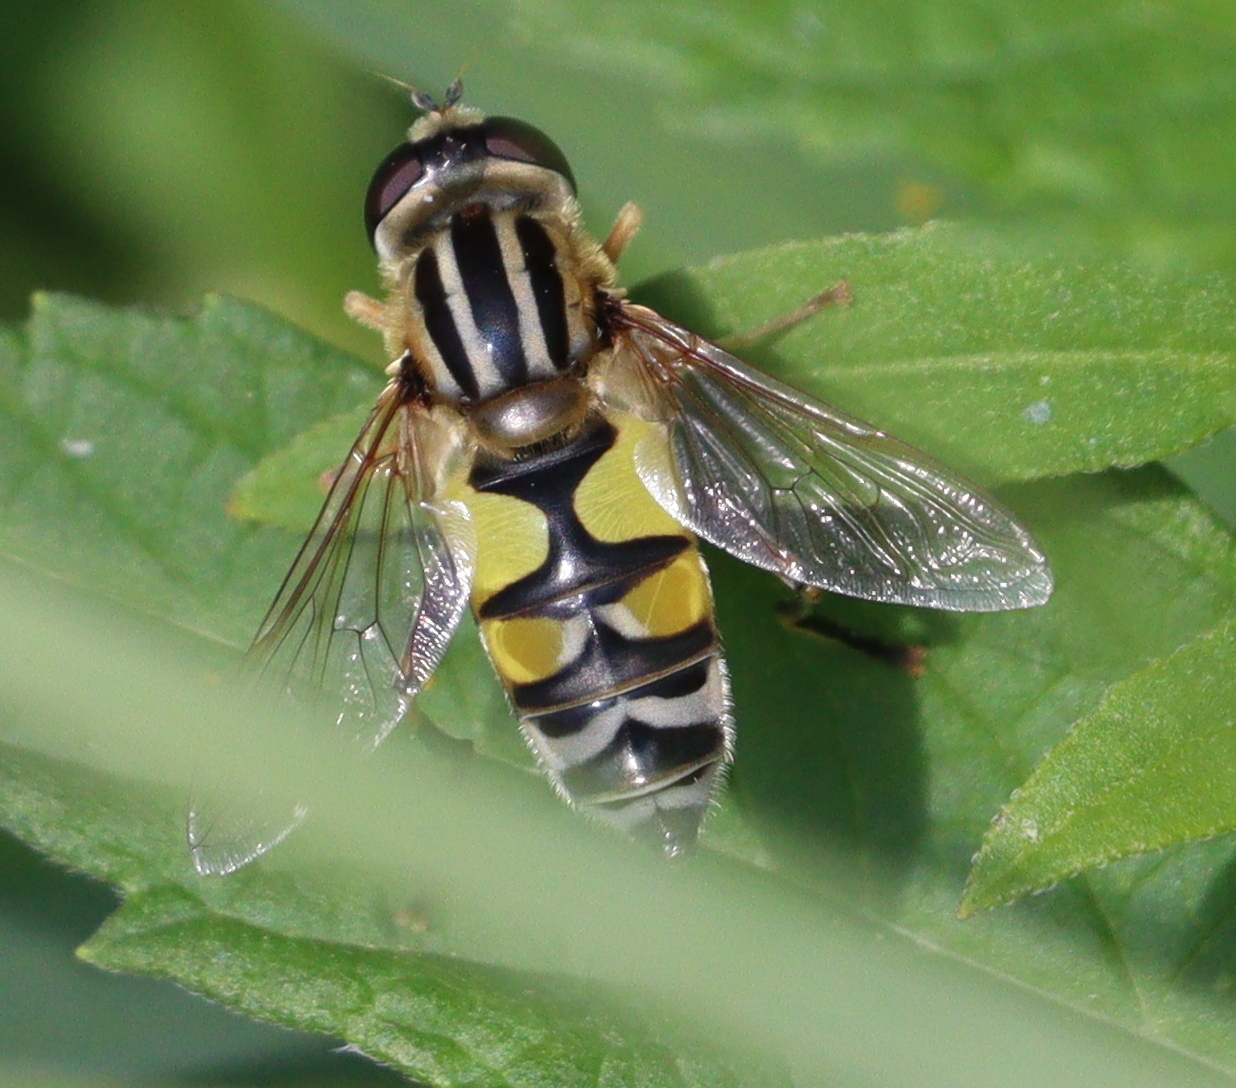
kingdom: Animalia
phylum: Arthropoda
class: Insecta
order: Diptera
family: Syrphidae
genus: Helophilus
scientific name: Helophilus trivittatus
